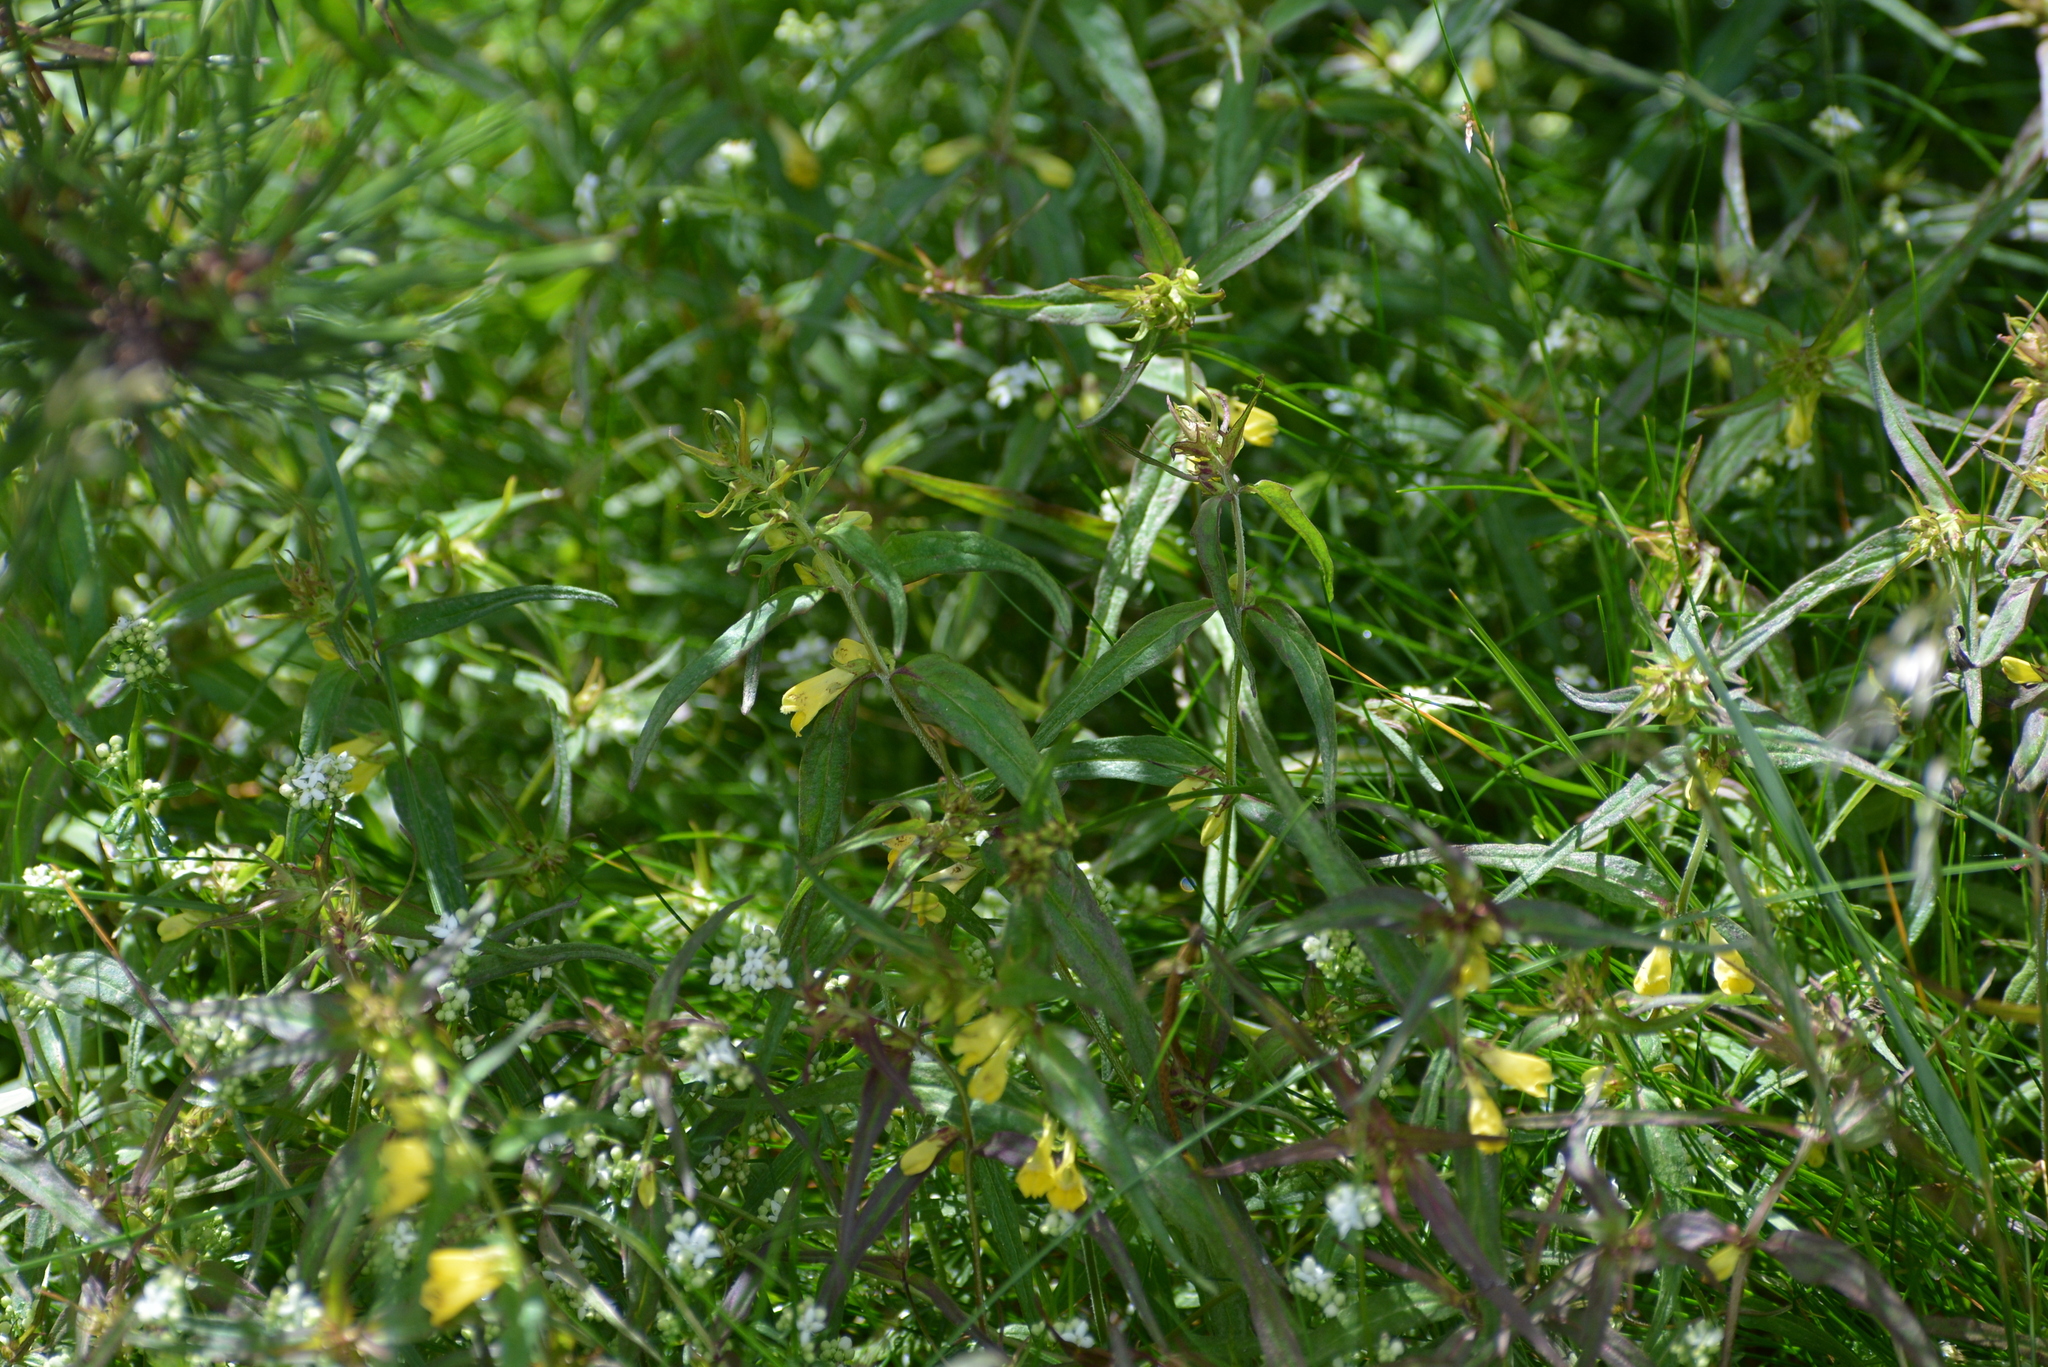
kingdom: Plantae
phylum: Tracheophyta
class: Magnoliopsida
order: Lamiales
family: Orobanchaceae
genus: Melampyrum
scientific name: Melampyrum pratense
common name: Common cow-wheat
